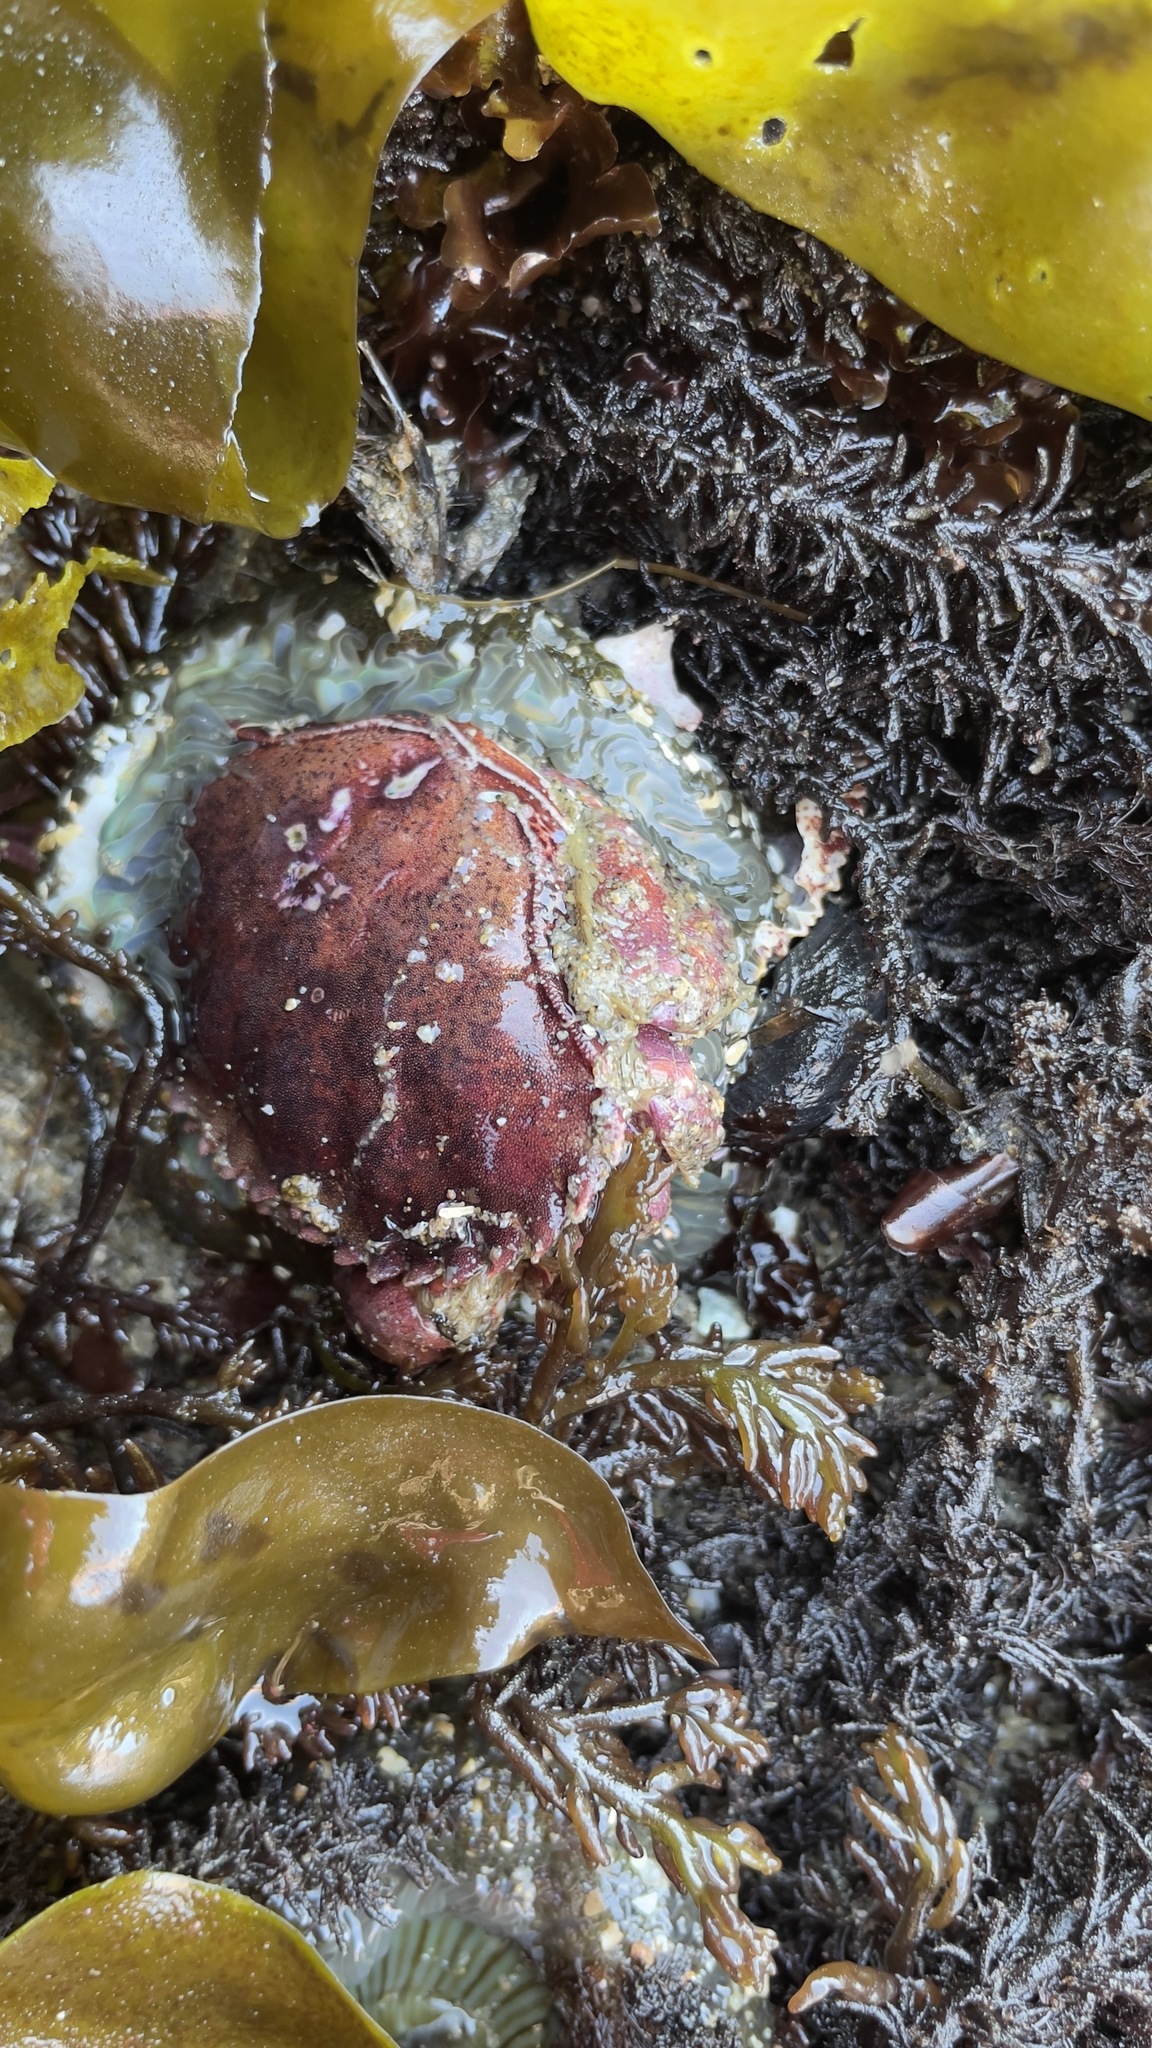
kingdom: Animalia
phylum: Arthropoda
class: Malacostraca
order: Decapoda
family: Cancridae
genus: Romaleon
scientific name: Romaleon antennarium
